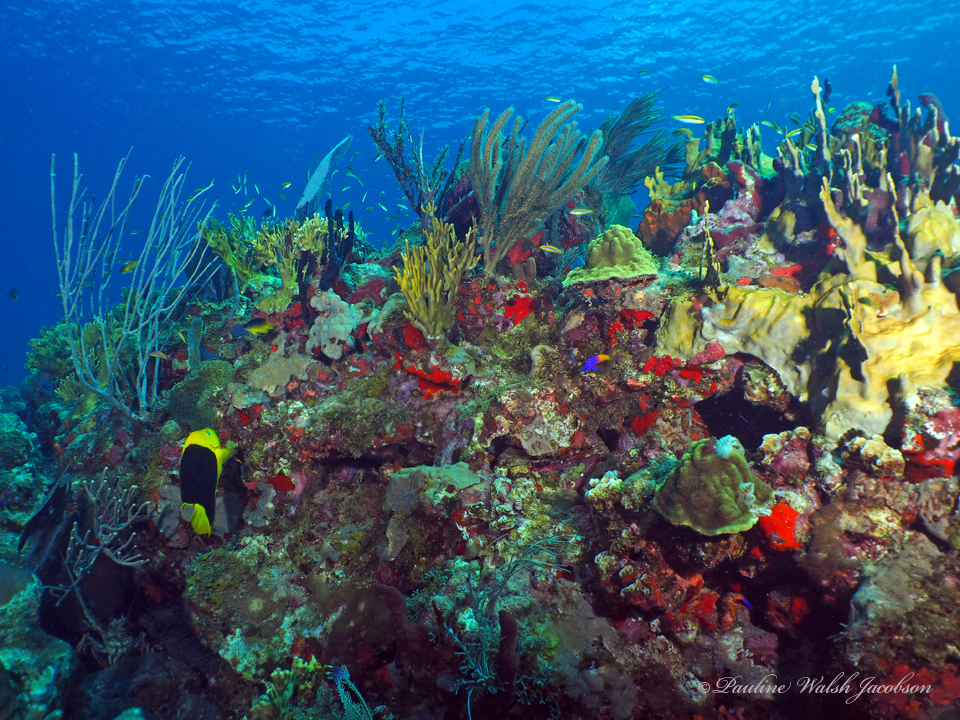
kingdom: Animalia
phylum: Chordata
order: Perciformes
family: Pomacanthidae
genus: Holacanthus
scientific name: Holacanthus tricolor
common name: Rock beauty
